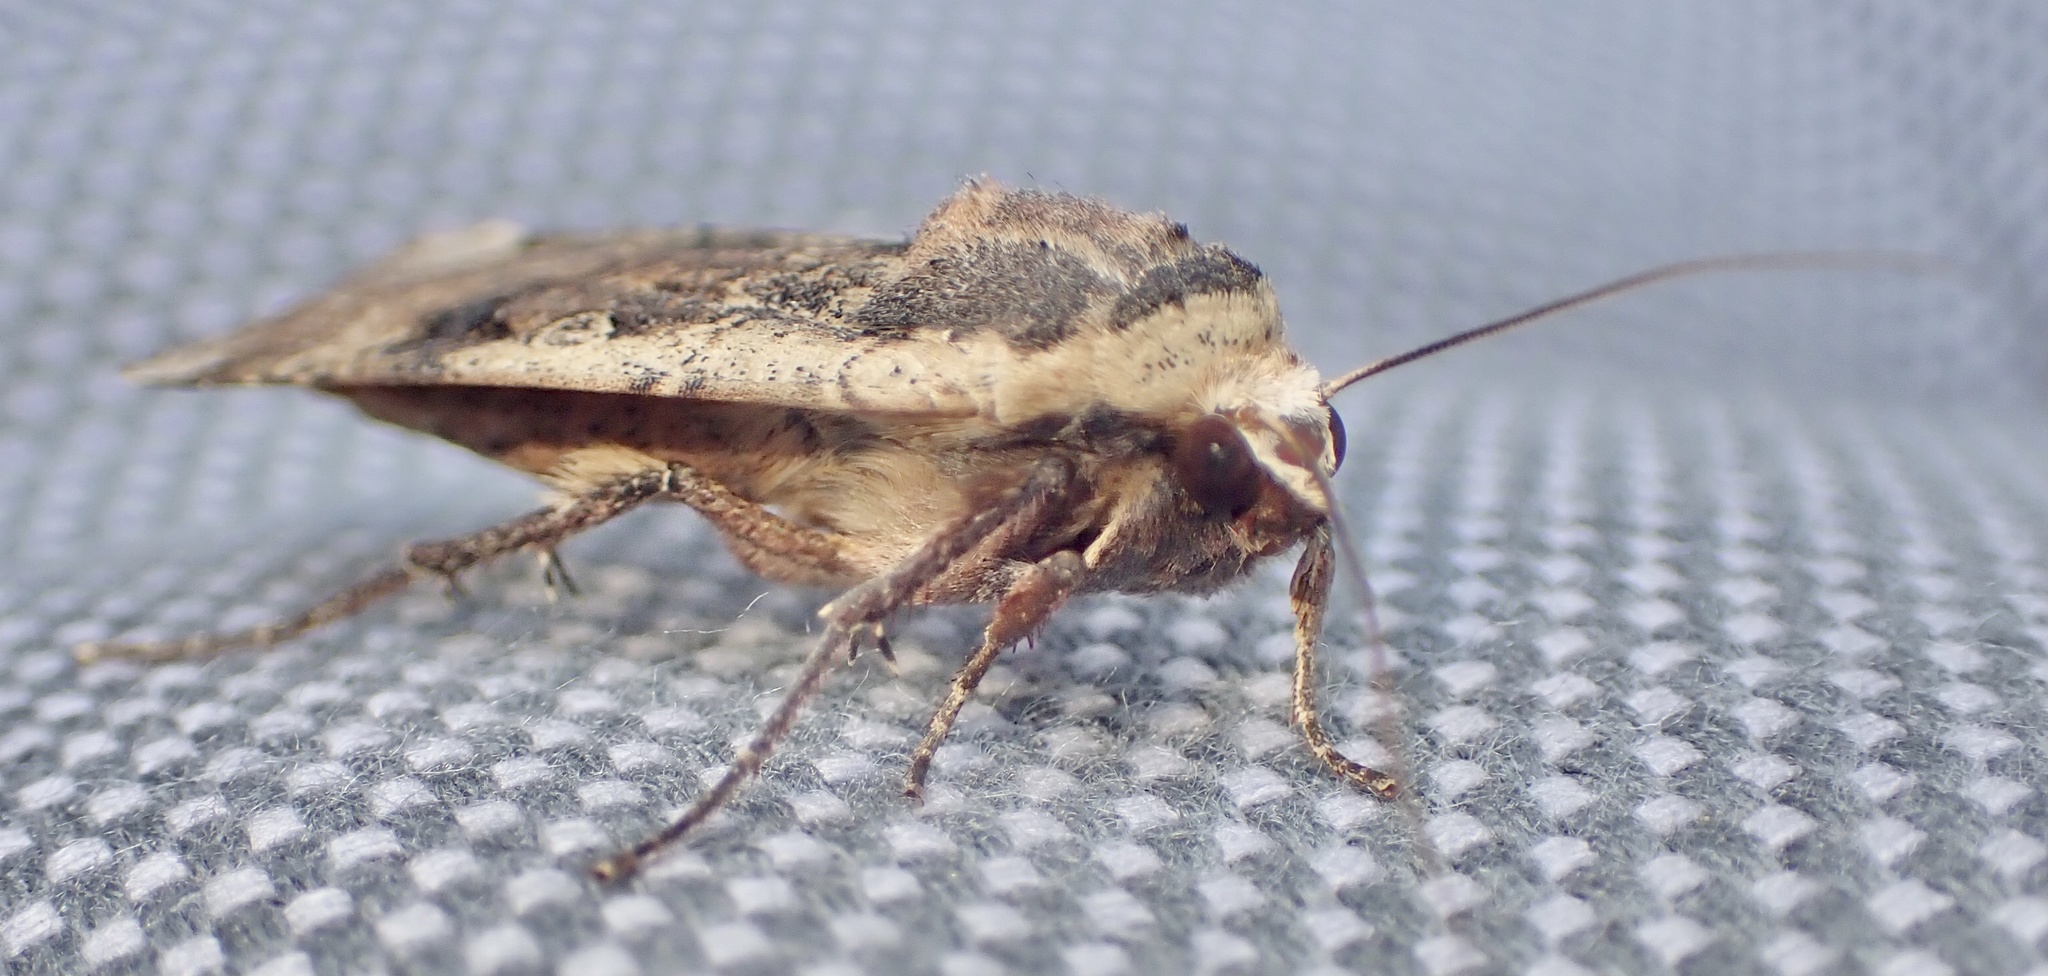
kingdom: Animalia
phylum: Arthropoda
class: Insecta
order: Lepidoptera
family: Noctuidae
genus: Noctua
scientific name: Noctua pronuba
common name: Large yellow underwing
